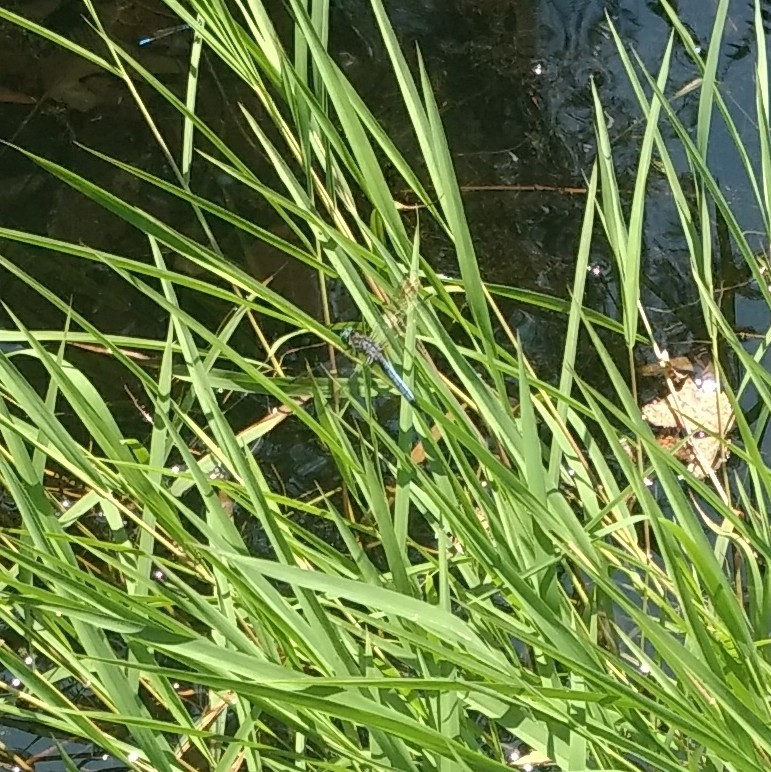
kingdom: Animalia
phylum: Arthropoda
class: Insecta
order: Odonata
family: Libellulidae
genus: Pachydiplax
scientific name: Pachydiplax longipennis
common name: Blue dasher
